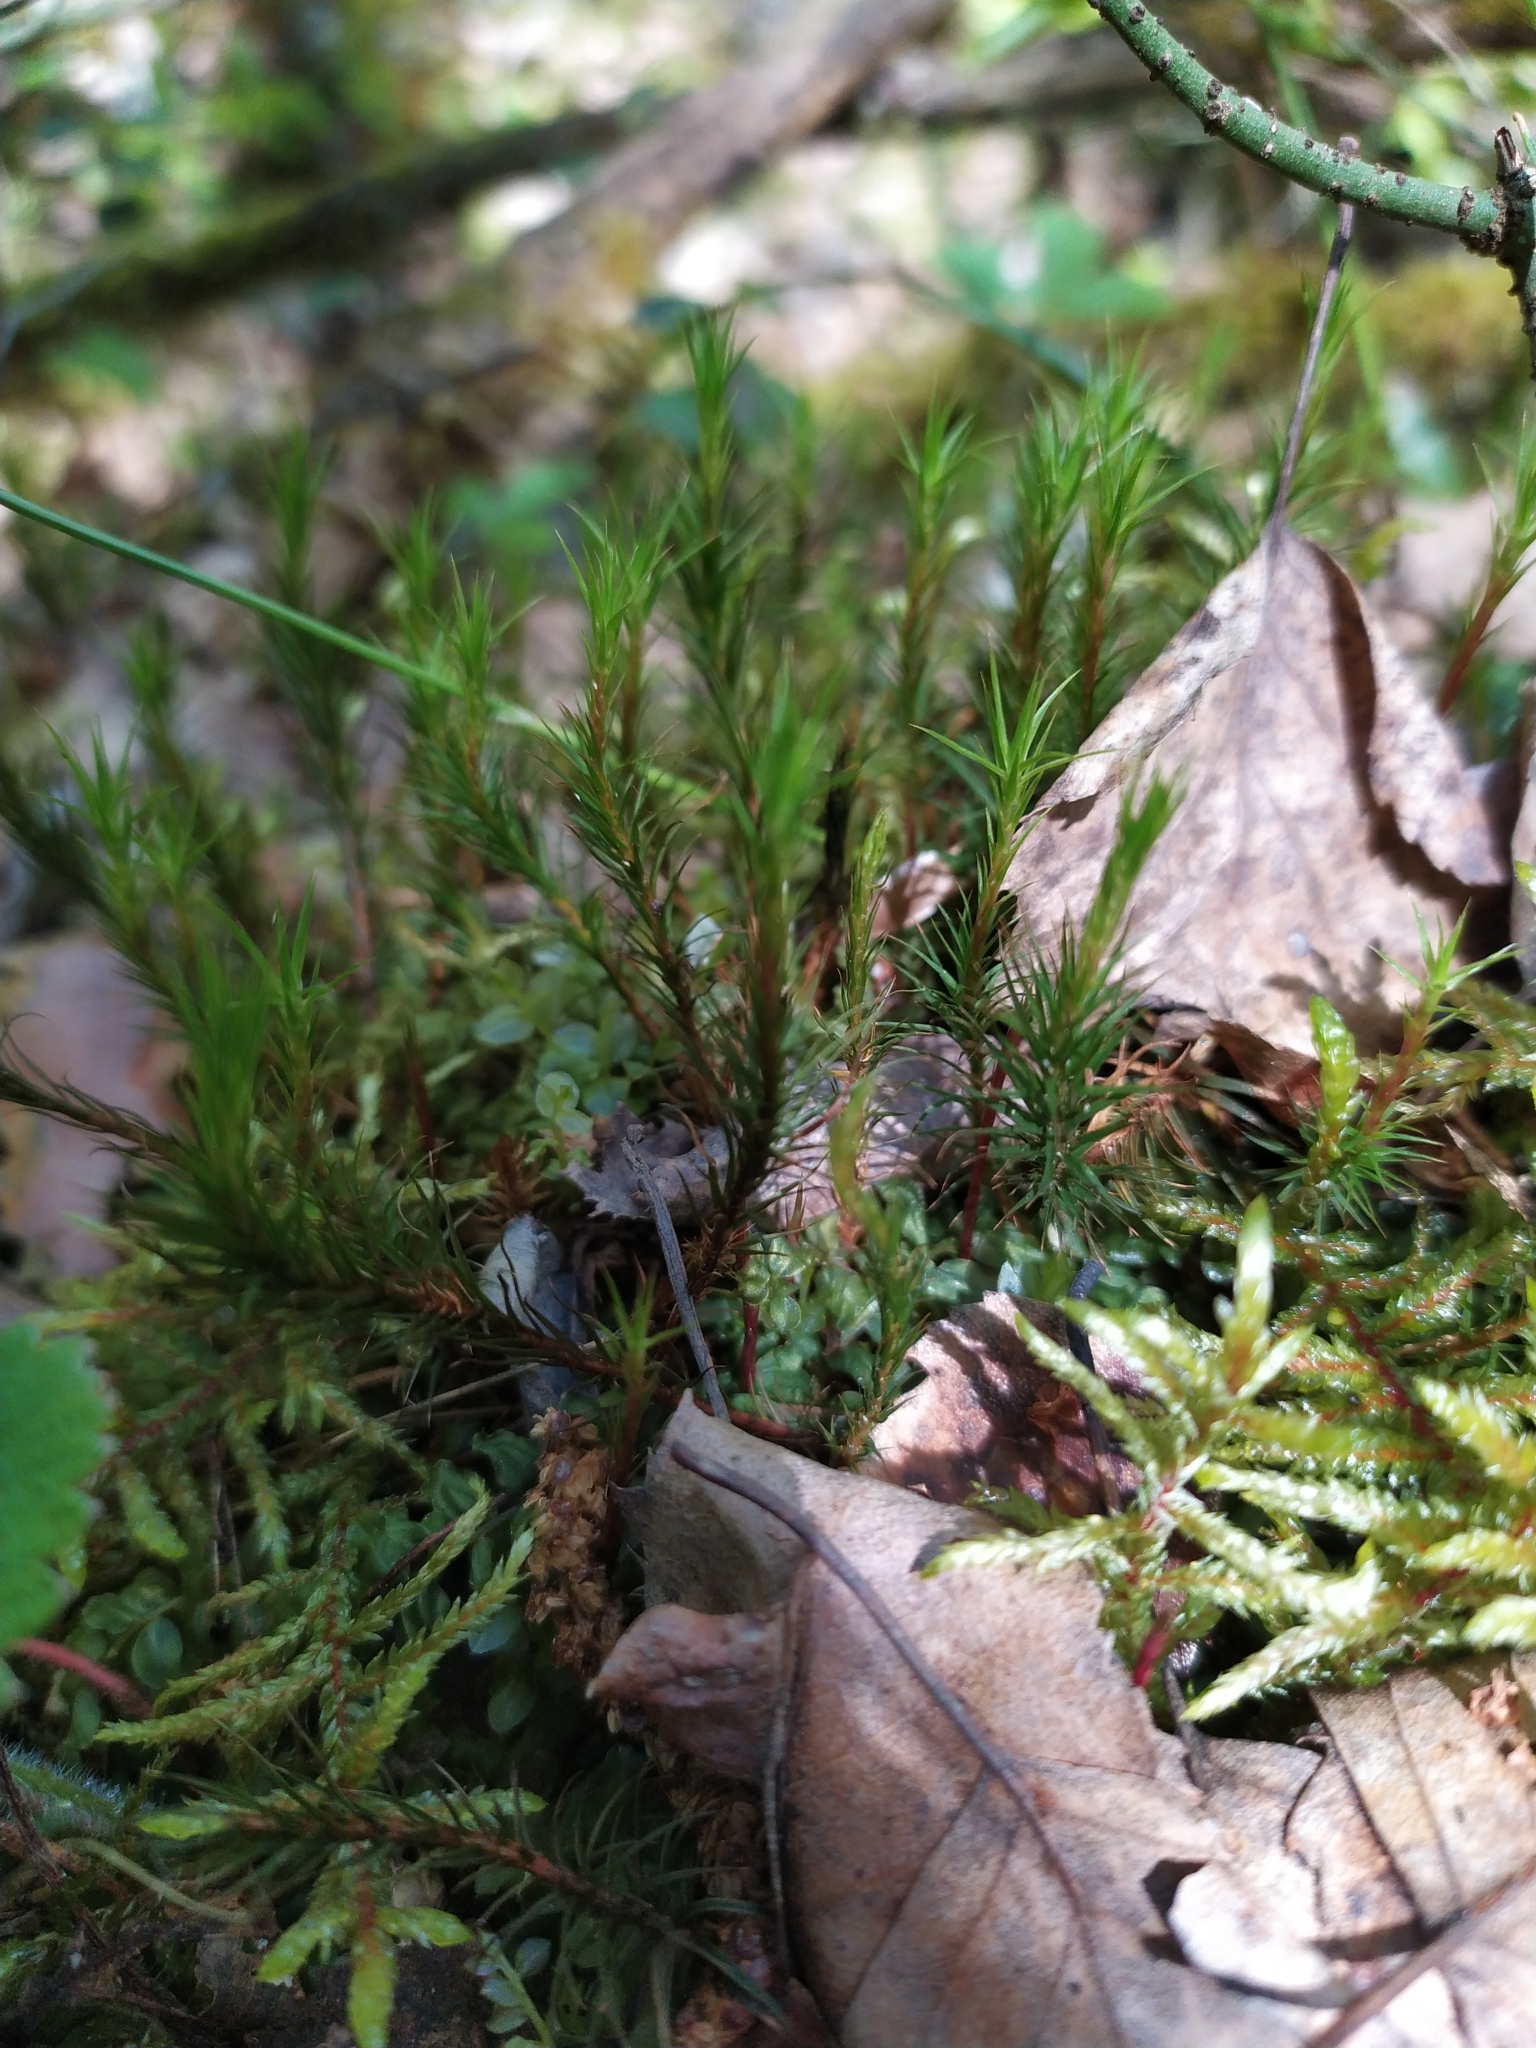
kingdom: Plantae
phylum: Bryophyta
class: Polytrichopsida
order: Polytrichales
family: Polytrichaceae
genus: Polytrichum
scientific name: Polytrichum formosum
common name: Bank haircap moss
